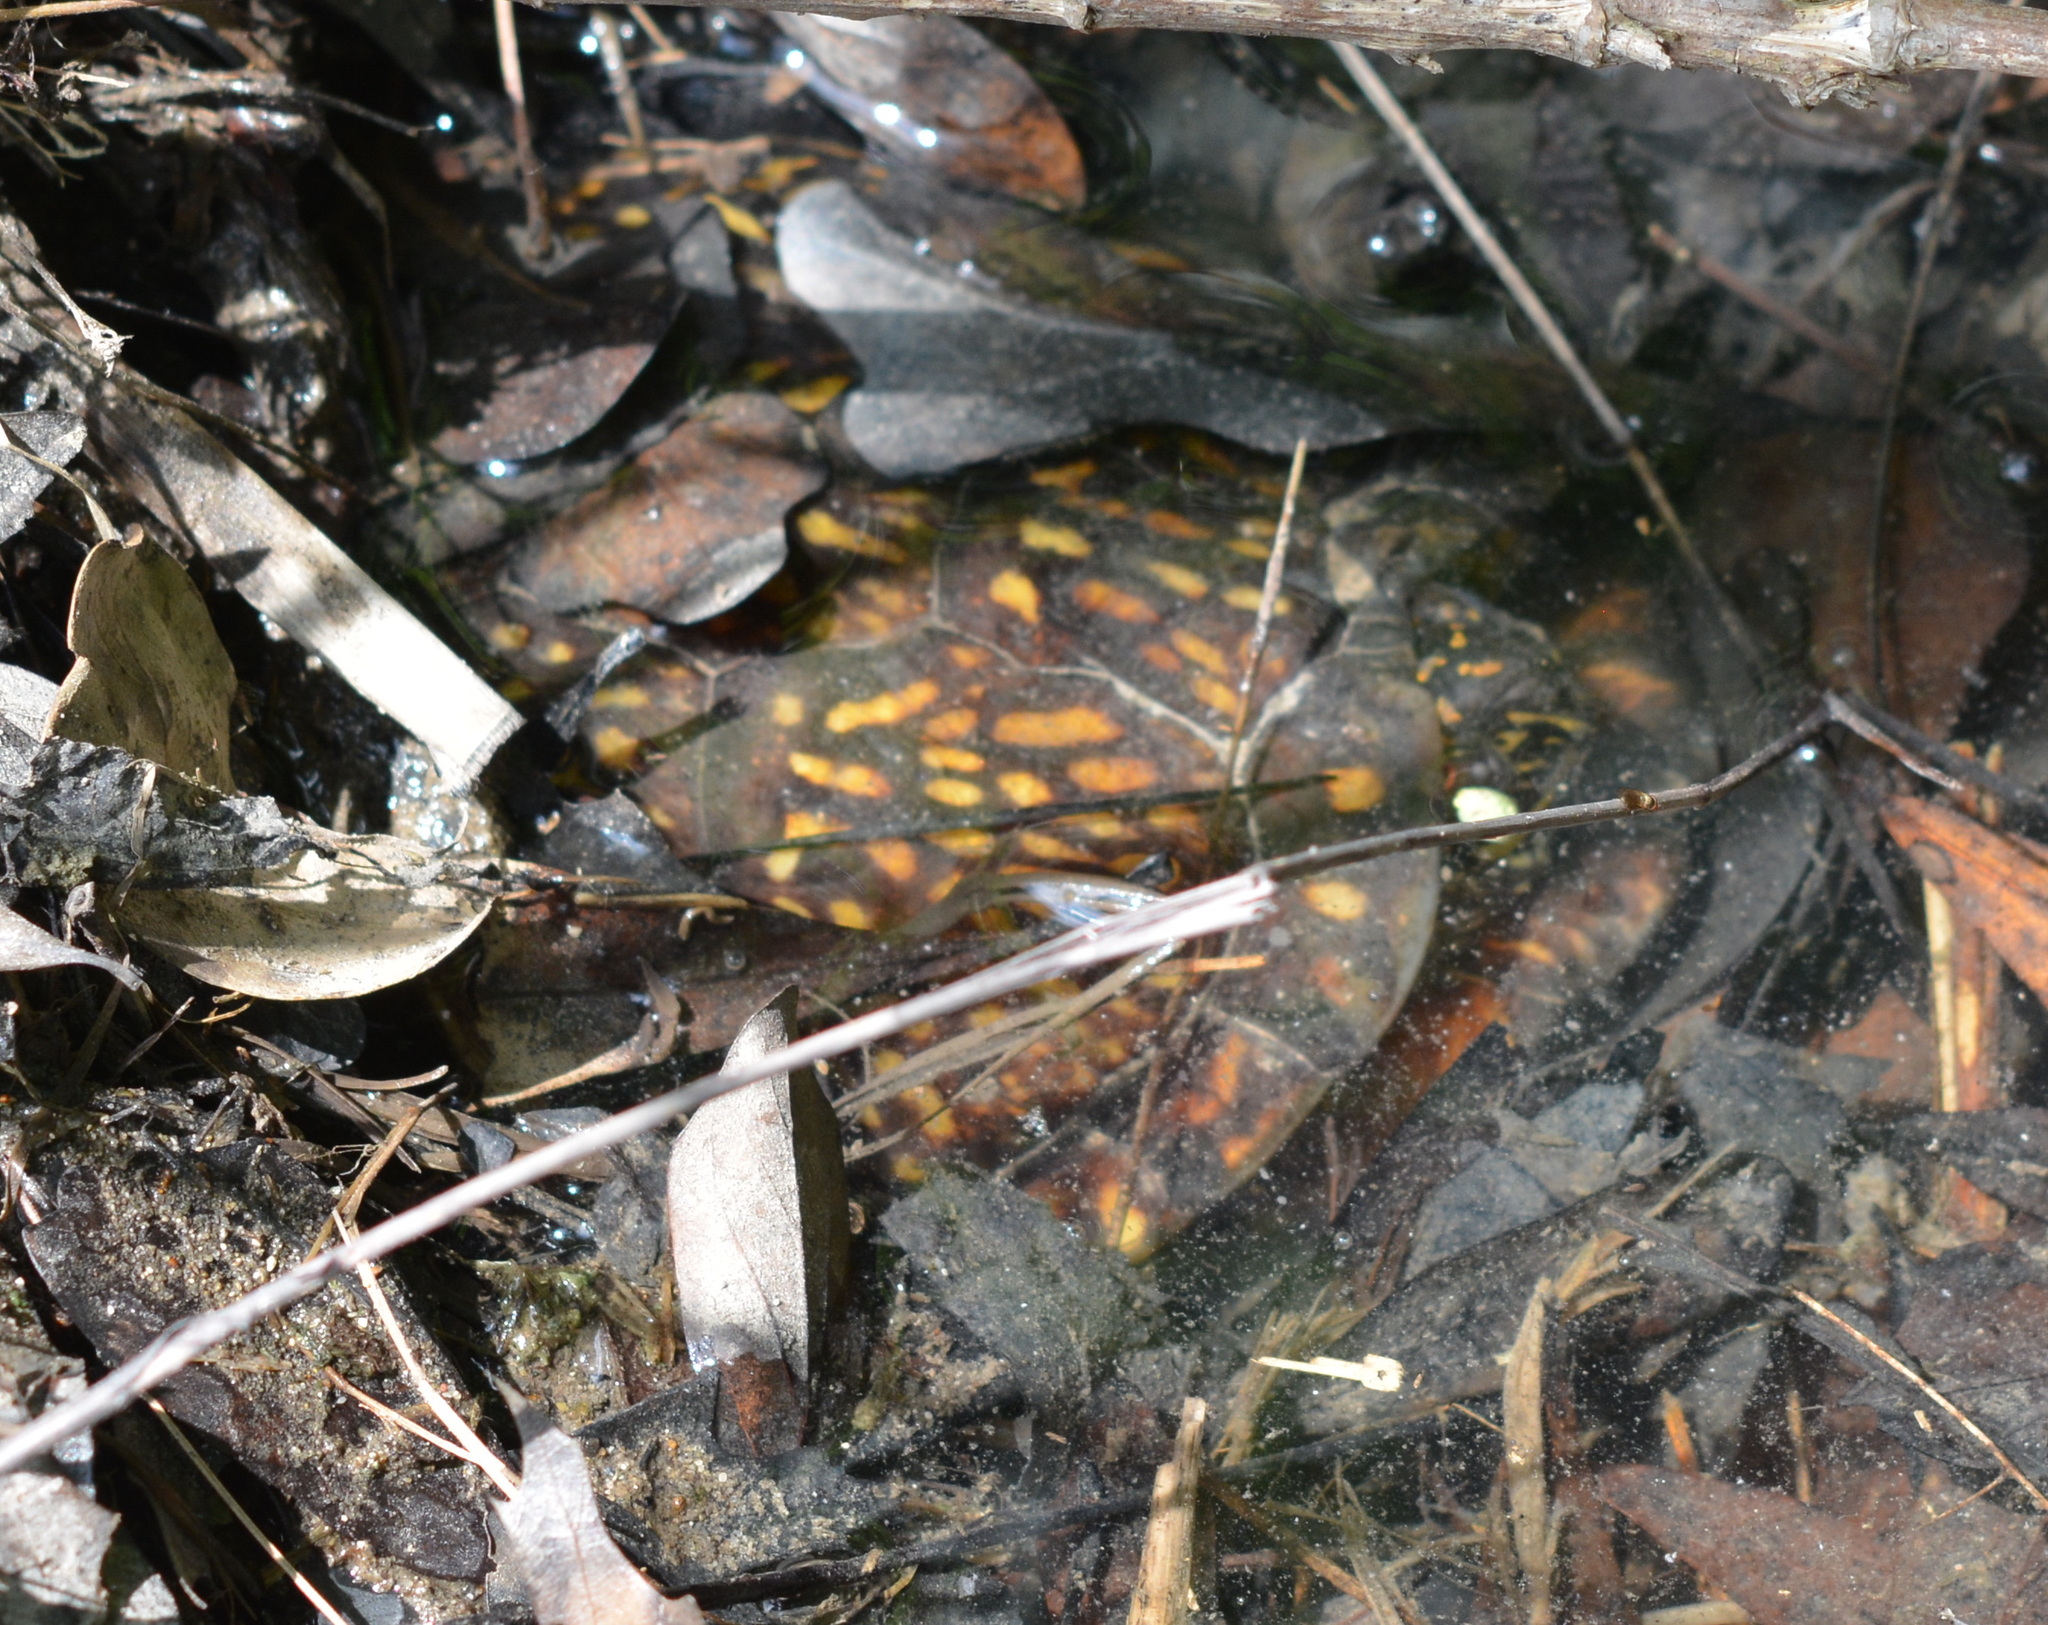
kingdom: Animalia
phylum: Chordata
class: Testudines
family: Emydidae
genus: Terrapene
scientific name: Terrapene carolina
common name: Common box turtle
